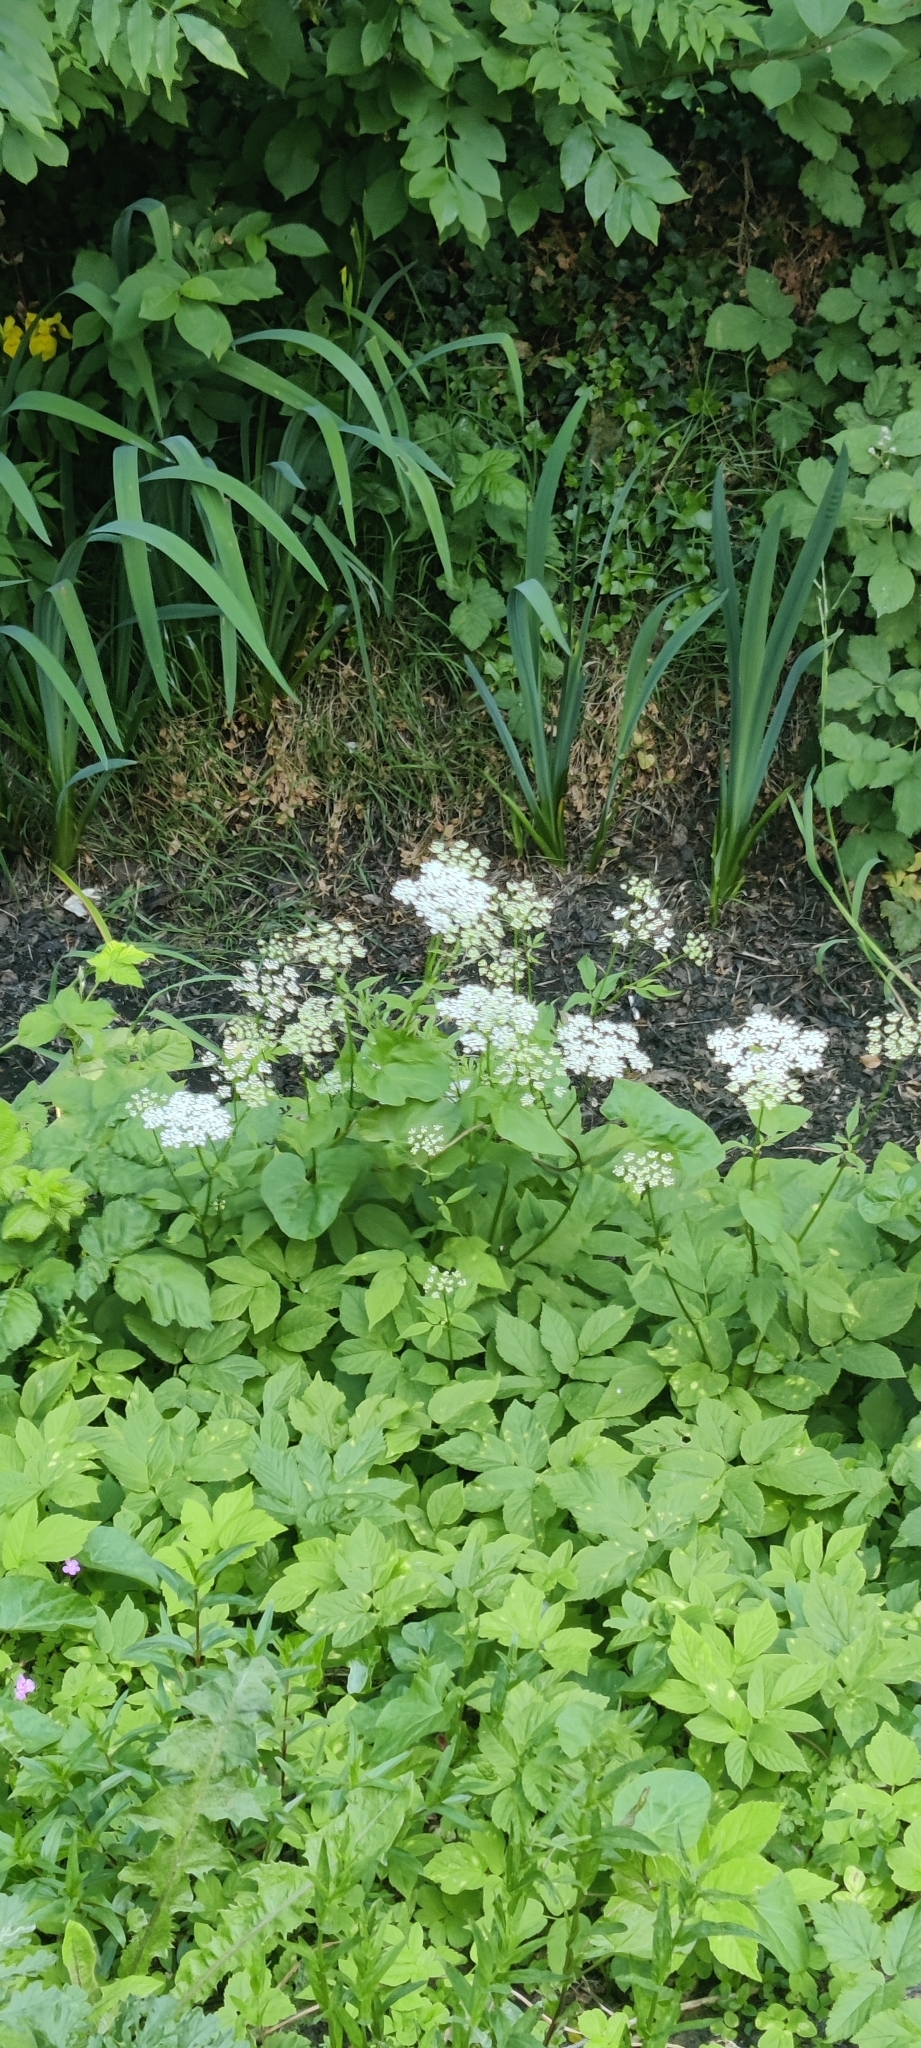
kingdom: Plantae
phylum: Tracheophyta
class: Magnoliopsida
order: Apiales
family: Apiaceae
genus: Aegopodium
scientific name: Aegopodium podagraria
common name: Ground-elder
